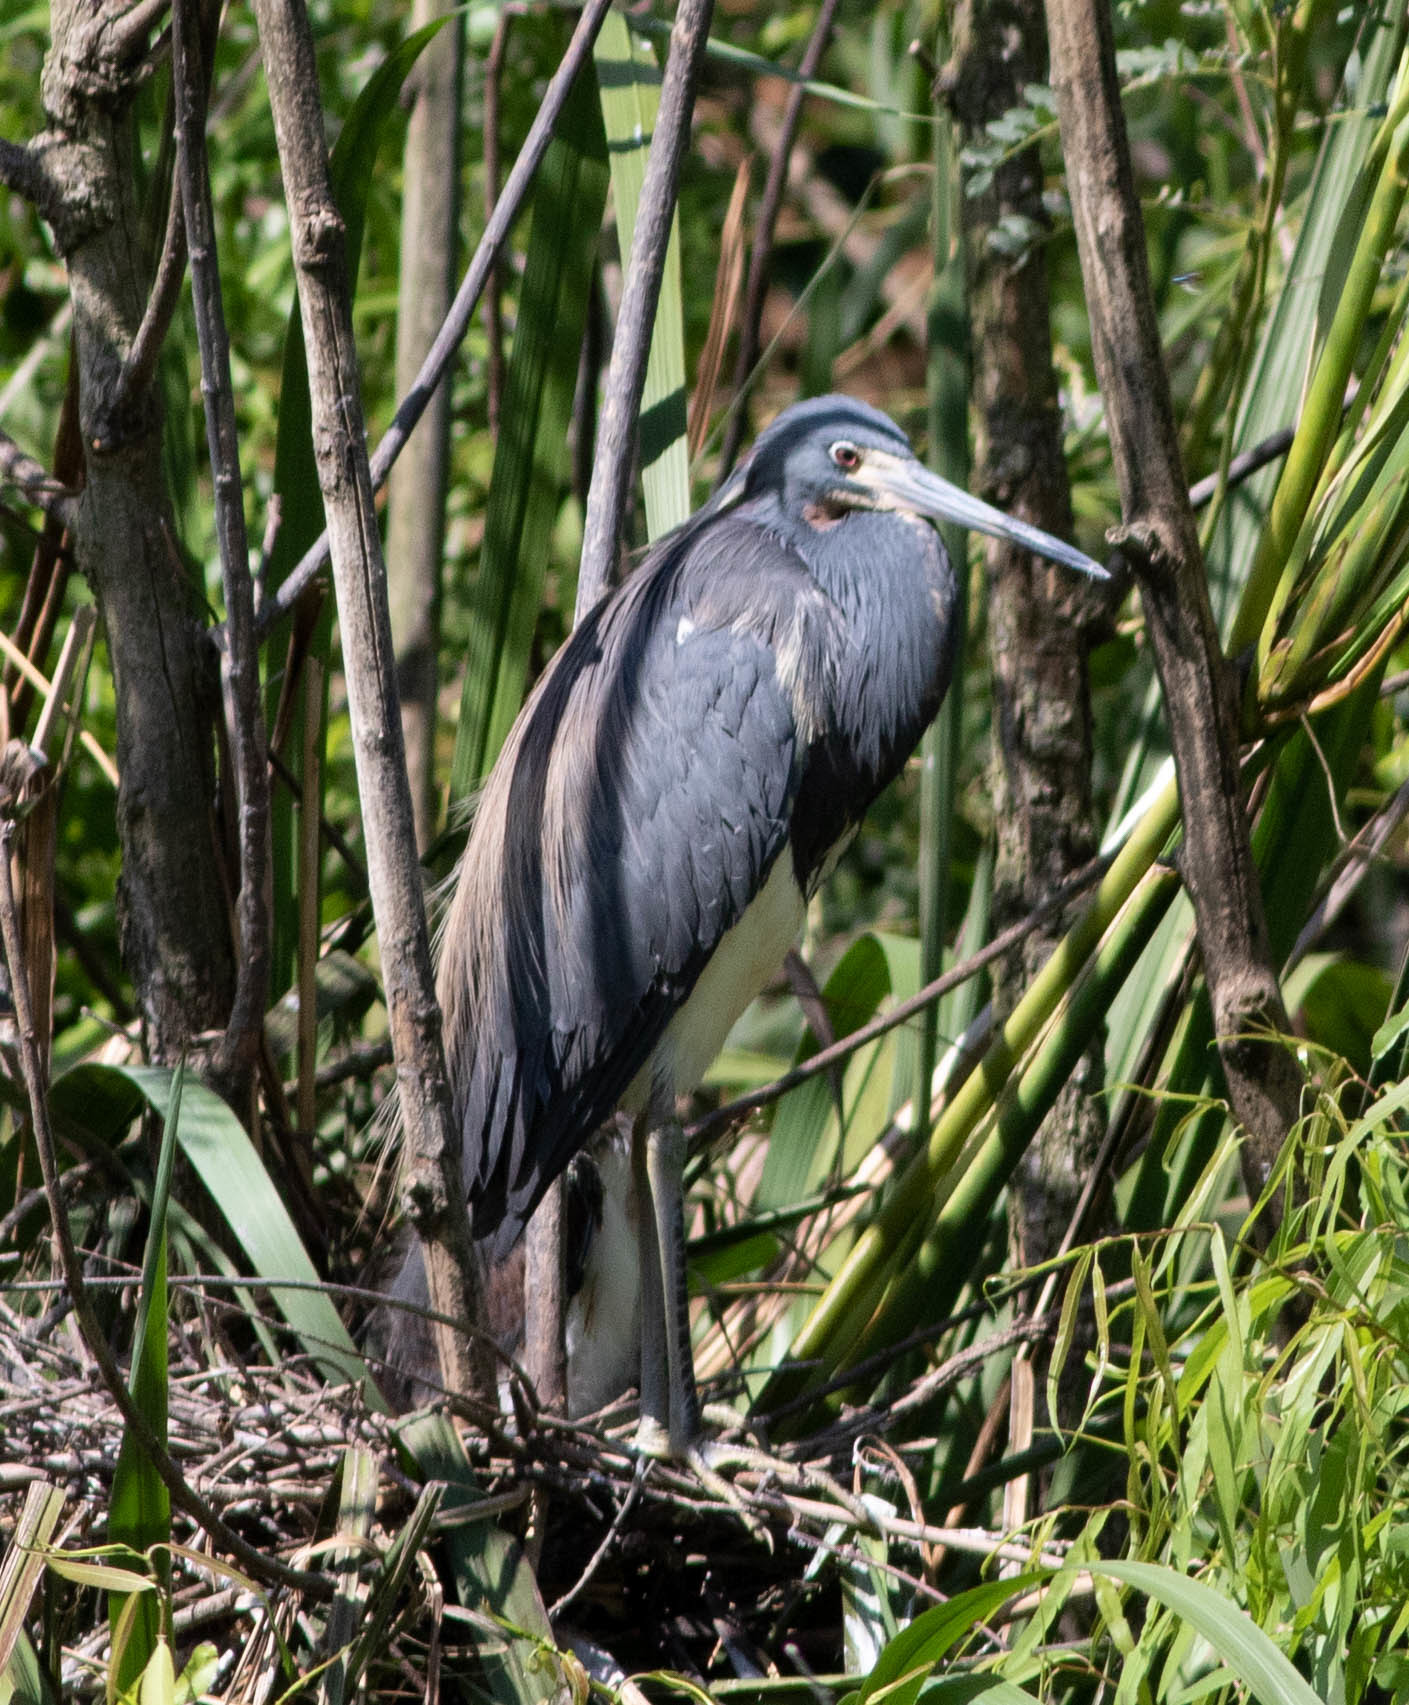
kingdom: Animalia
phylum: Chordata
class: Aves
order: Pelecaniformes
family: Ardeidae
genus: Egretta
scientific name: Egretta tricolor
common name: Tricolored heron
